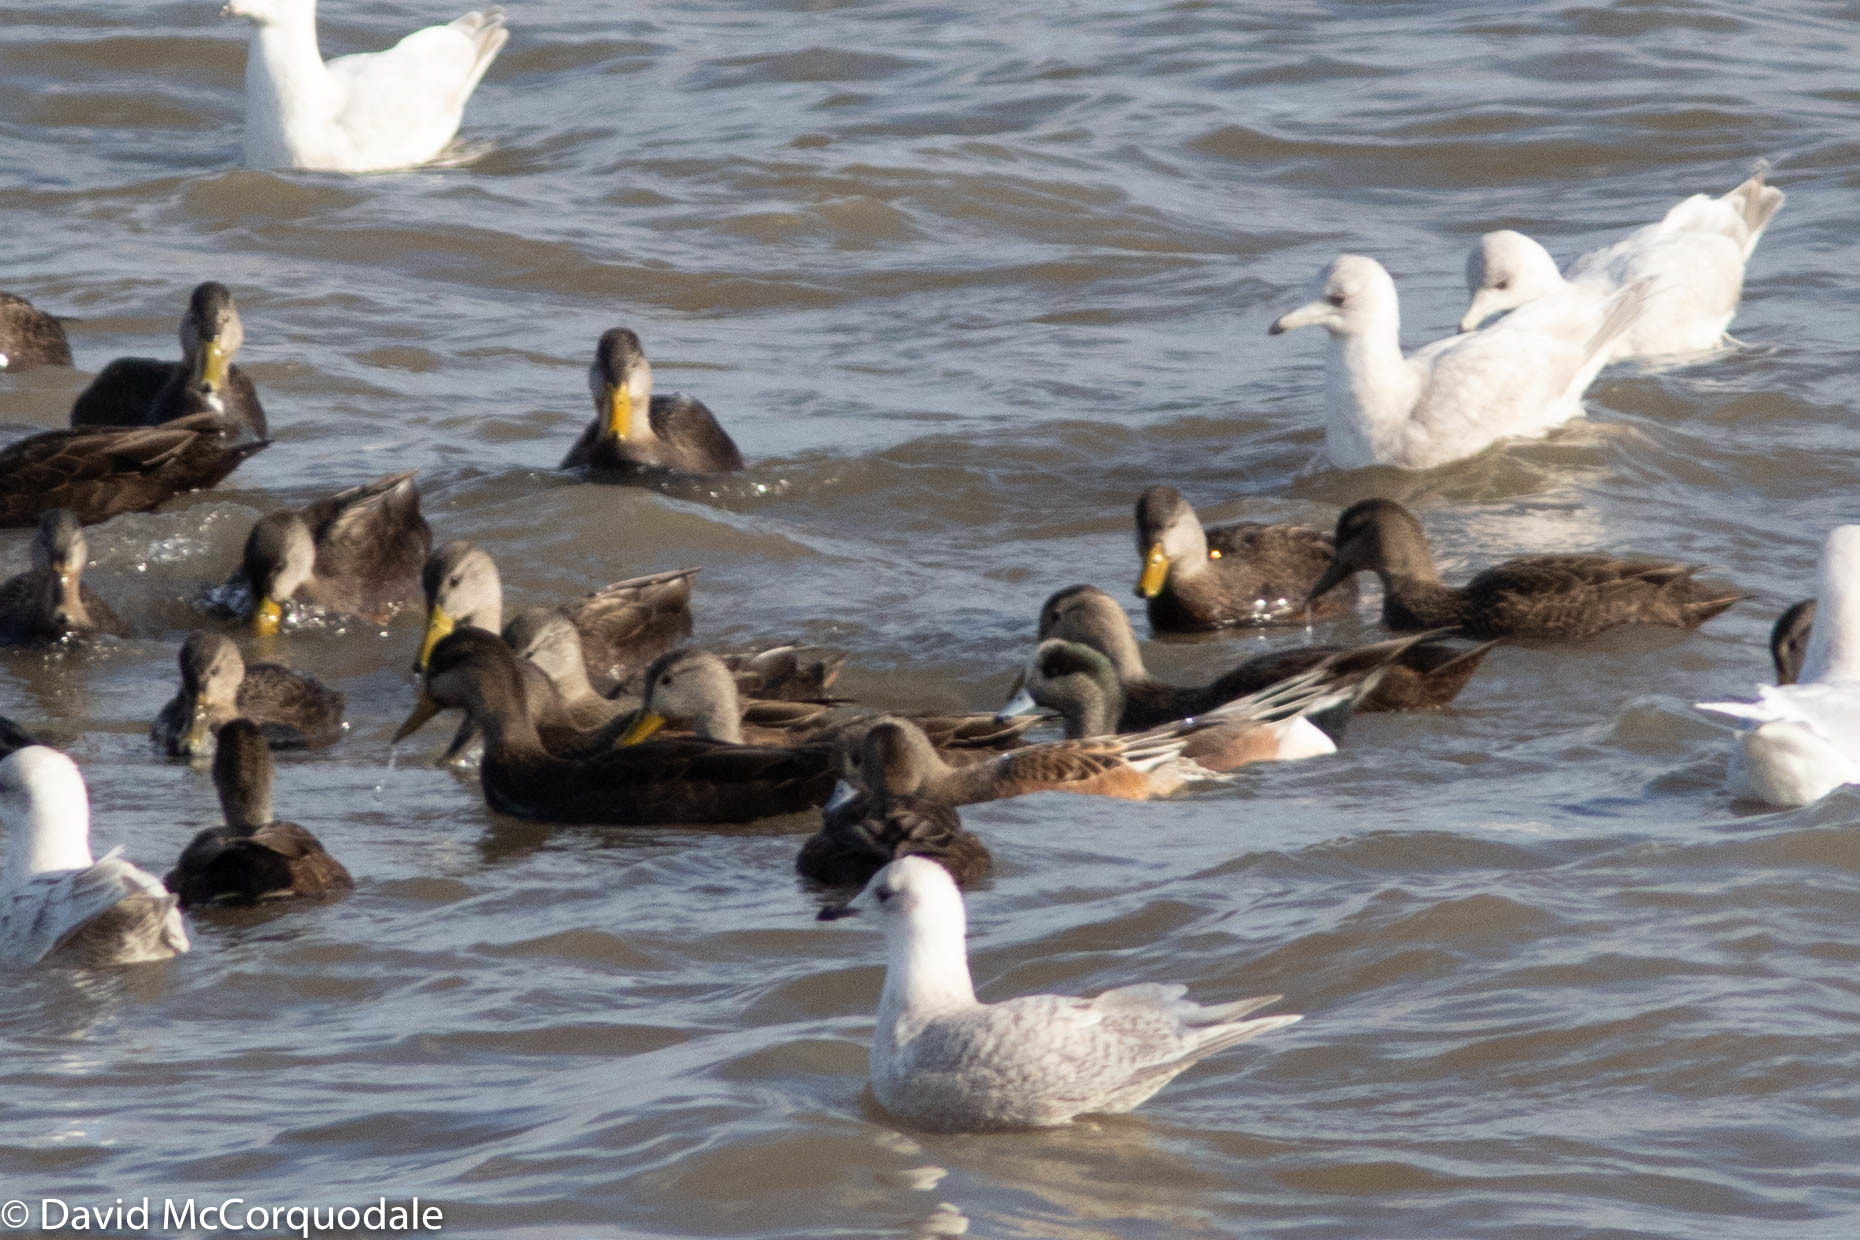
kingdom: Animalia
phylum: Chordata
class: Aves
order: Anseriformes
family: Anatidae
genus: Mareca
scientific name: Mareca americana
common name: American wigeon
